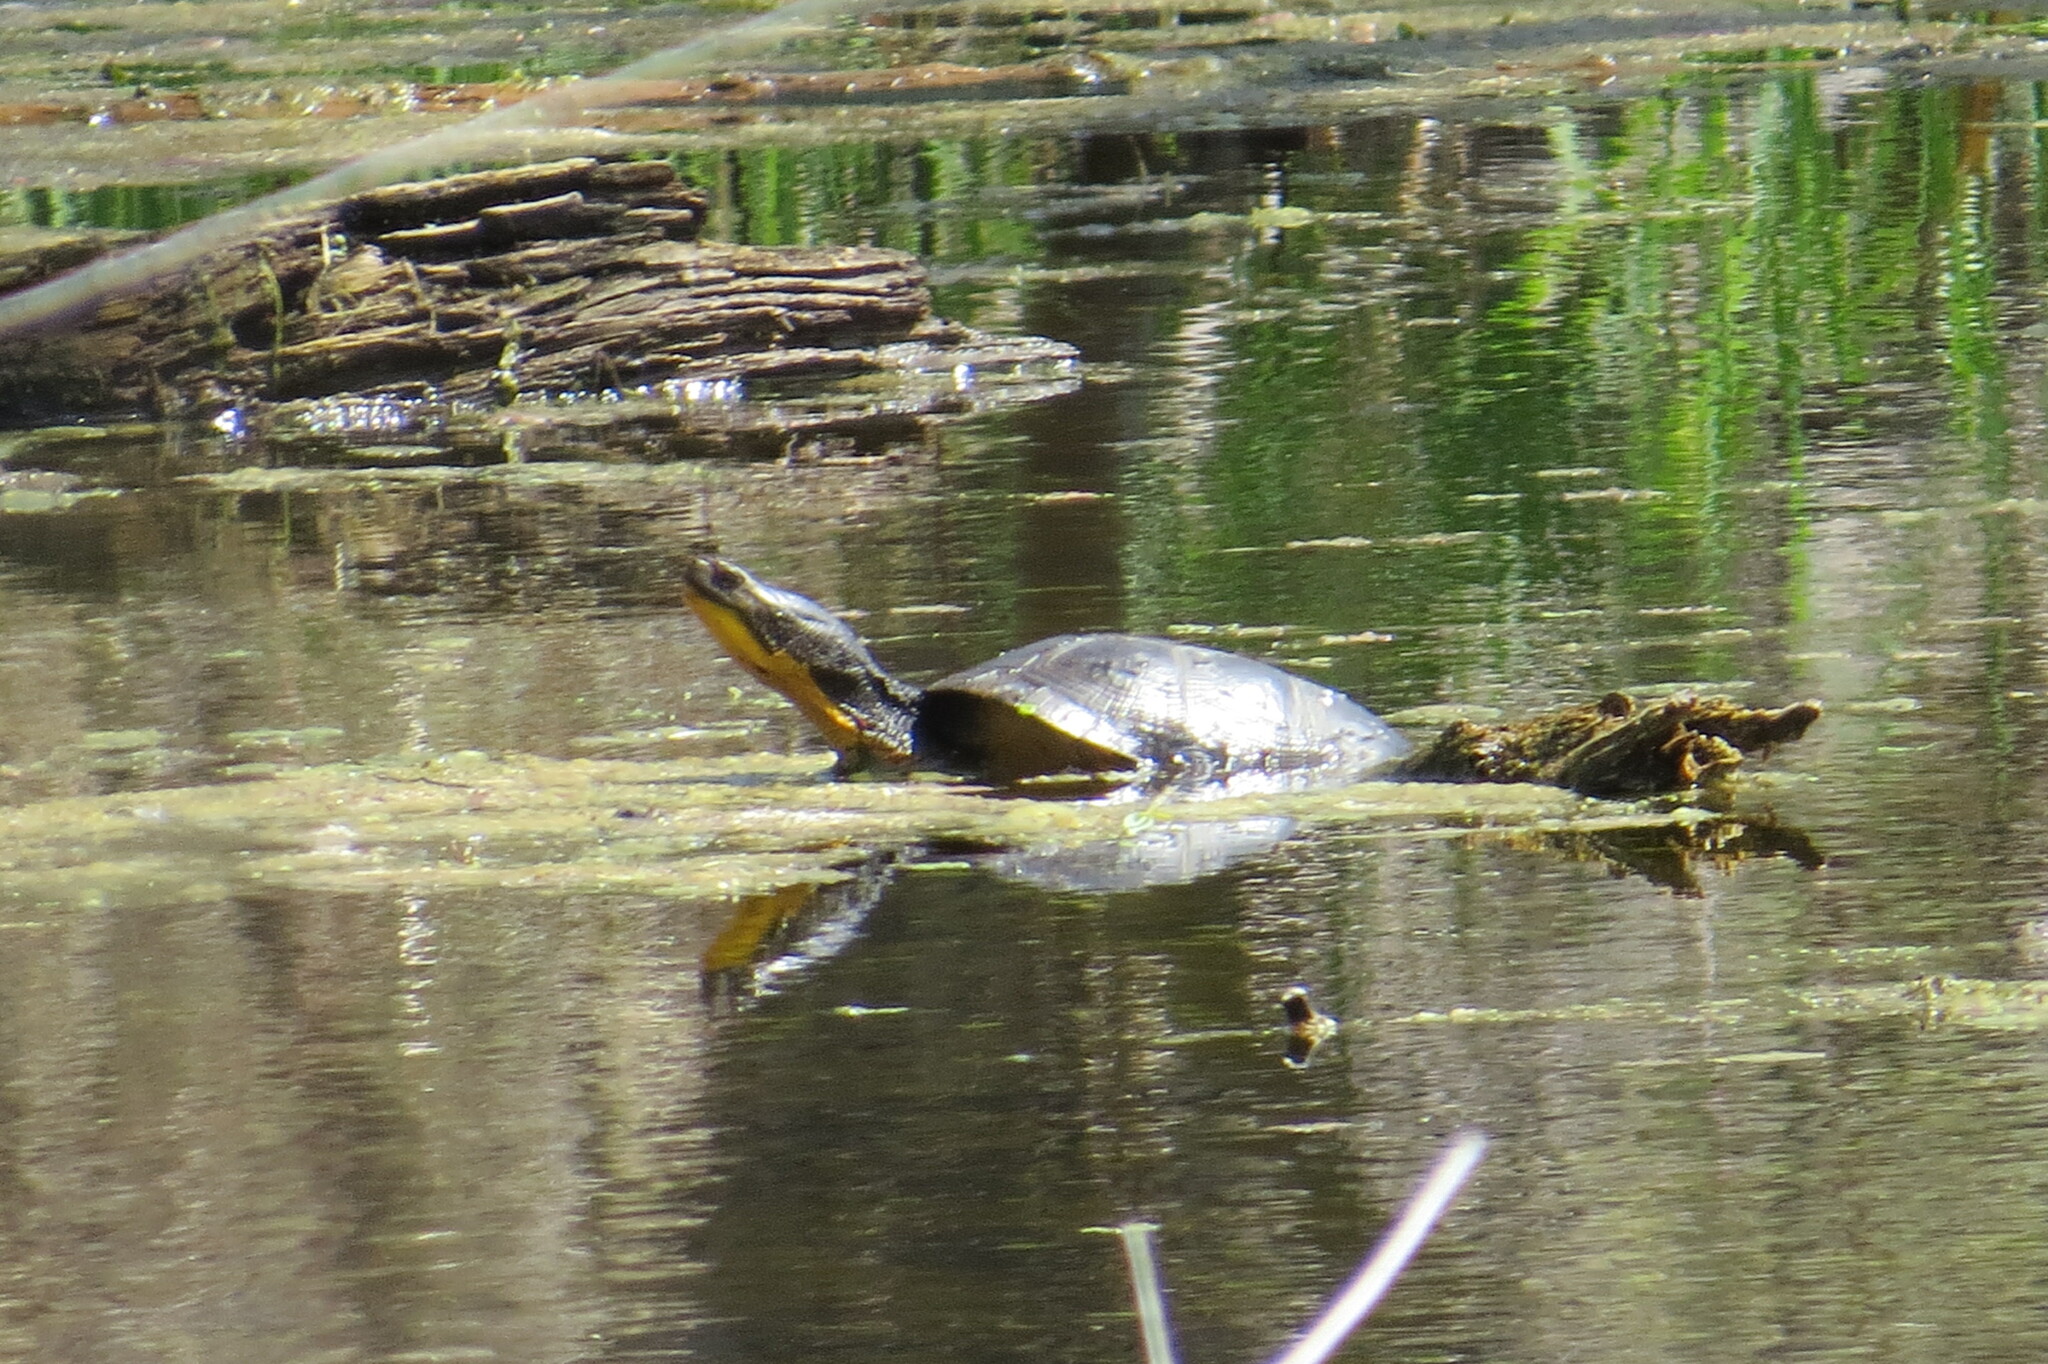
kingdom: Animalia
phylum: Chordata
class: Testudines
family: Emydidae
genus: Emys
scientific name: Emys blandingii
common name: Blanding's turtle
